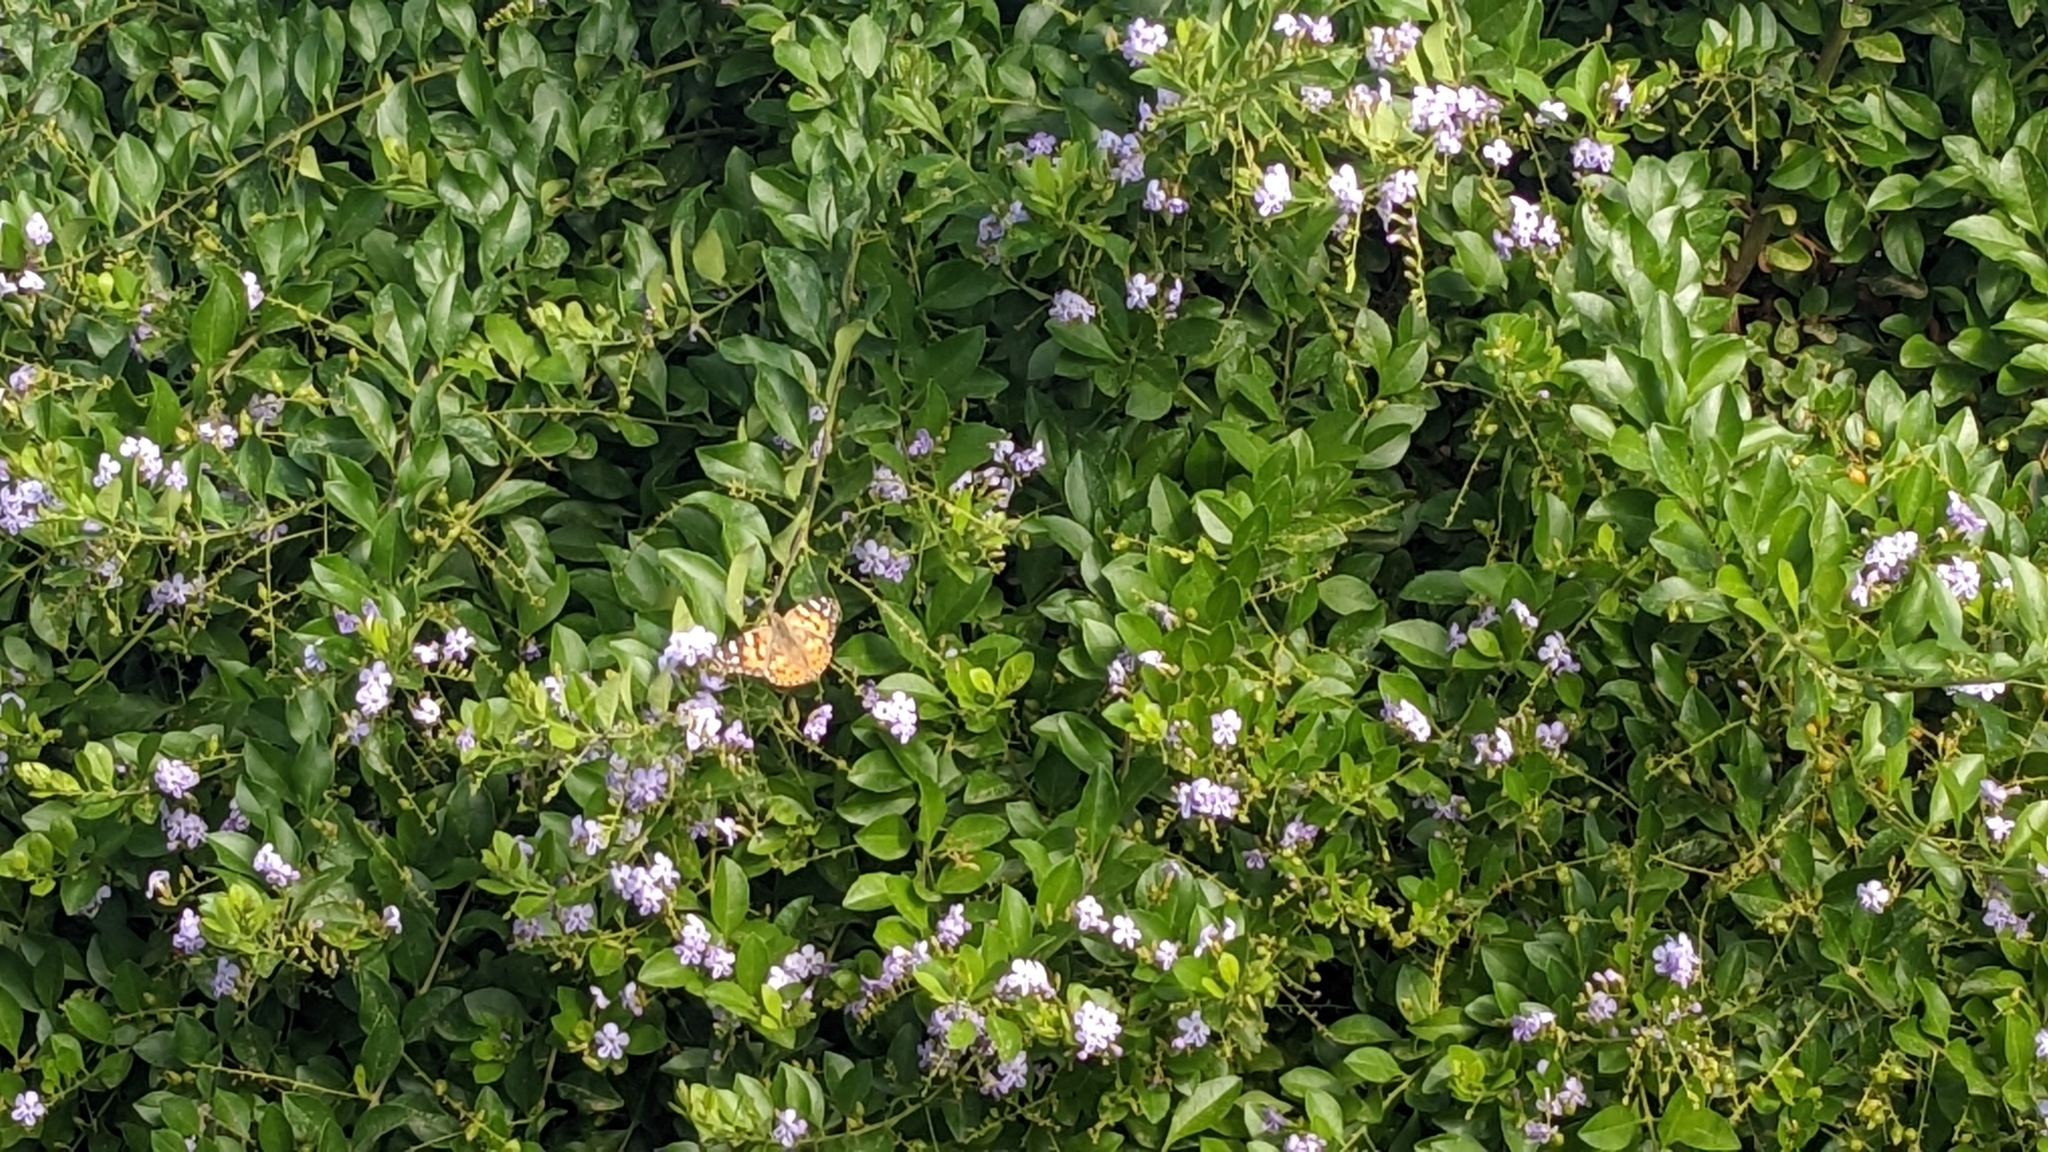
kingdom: Animalia
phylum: Arthropoda
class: Insecta
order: Lepidoptera
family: Nymphalidae
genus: Vanessa
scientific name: Vanessa cardui
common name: Painted lady
